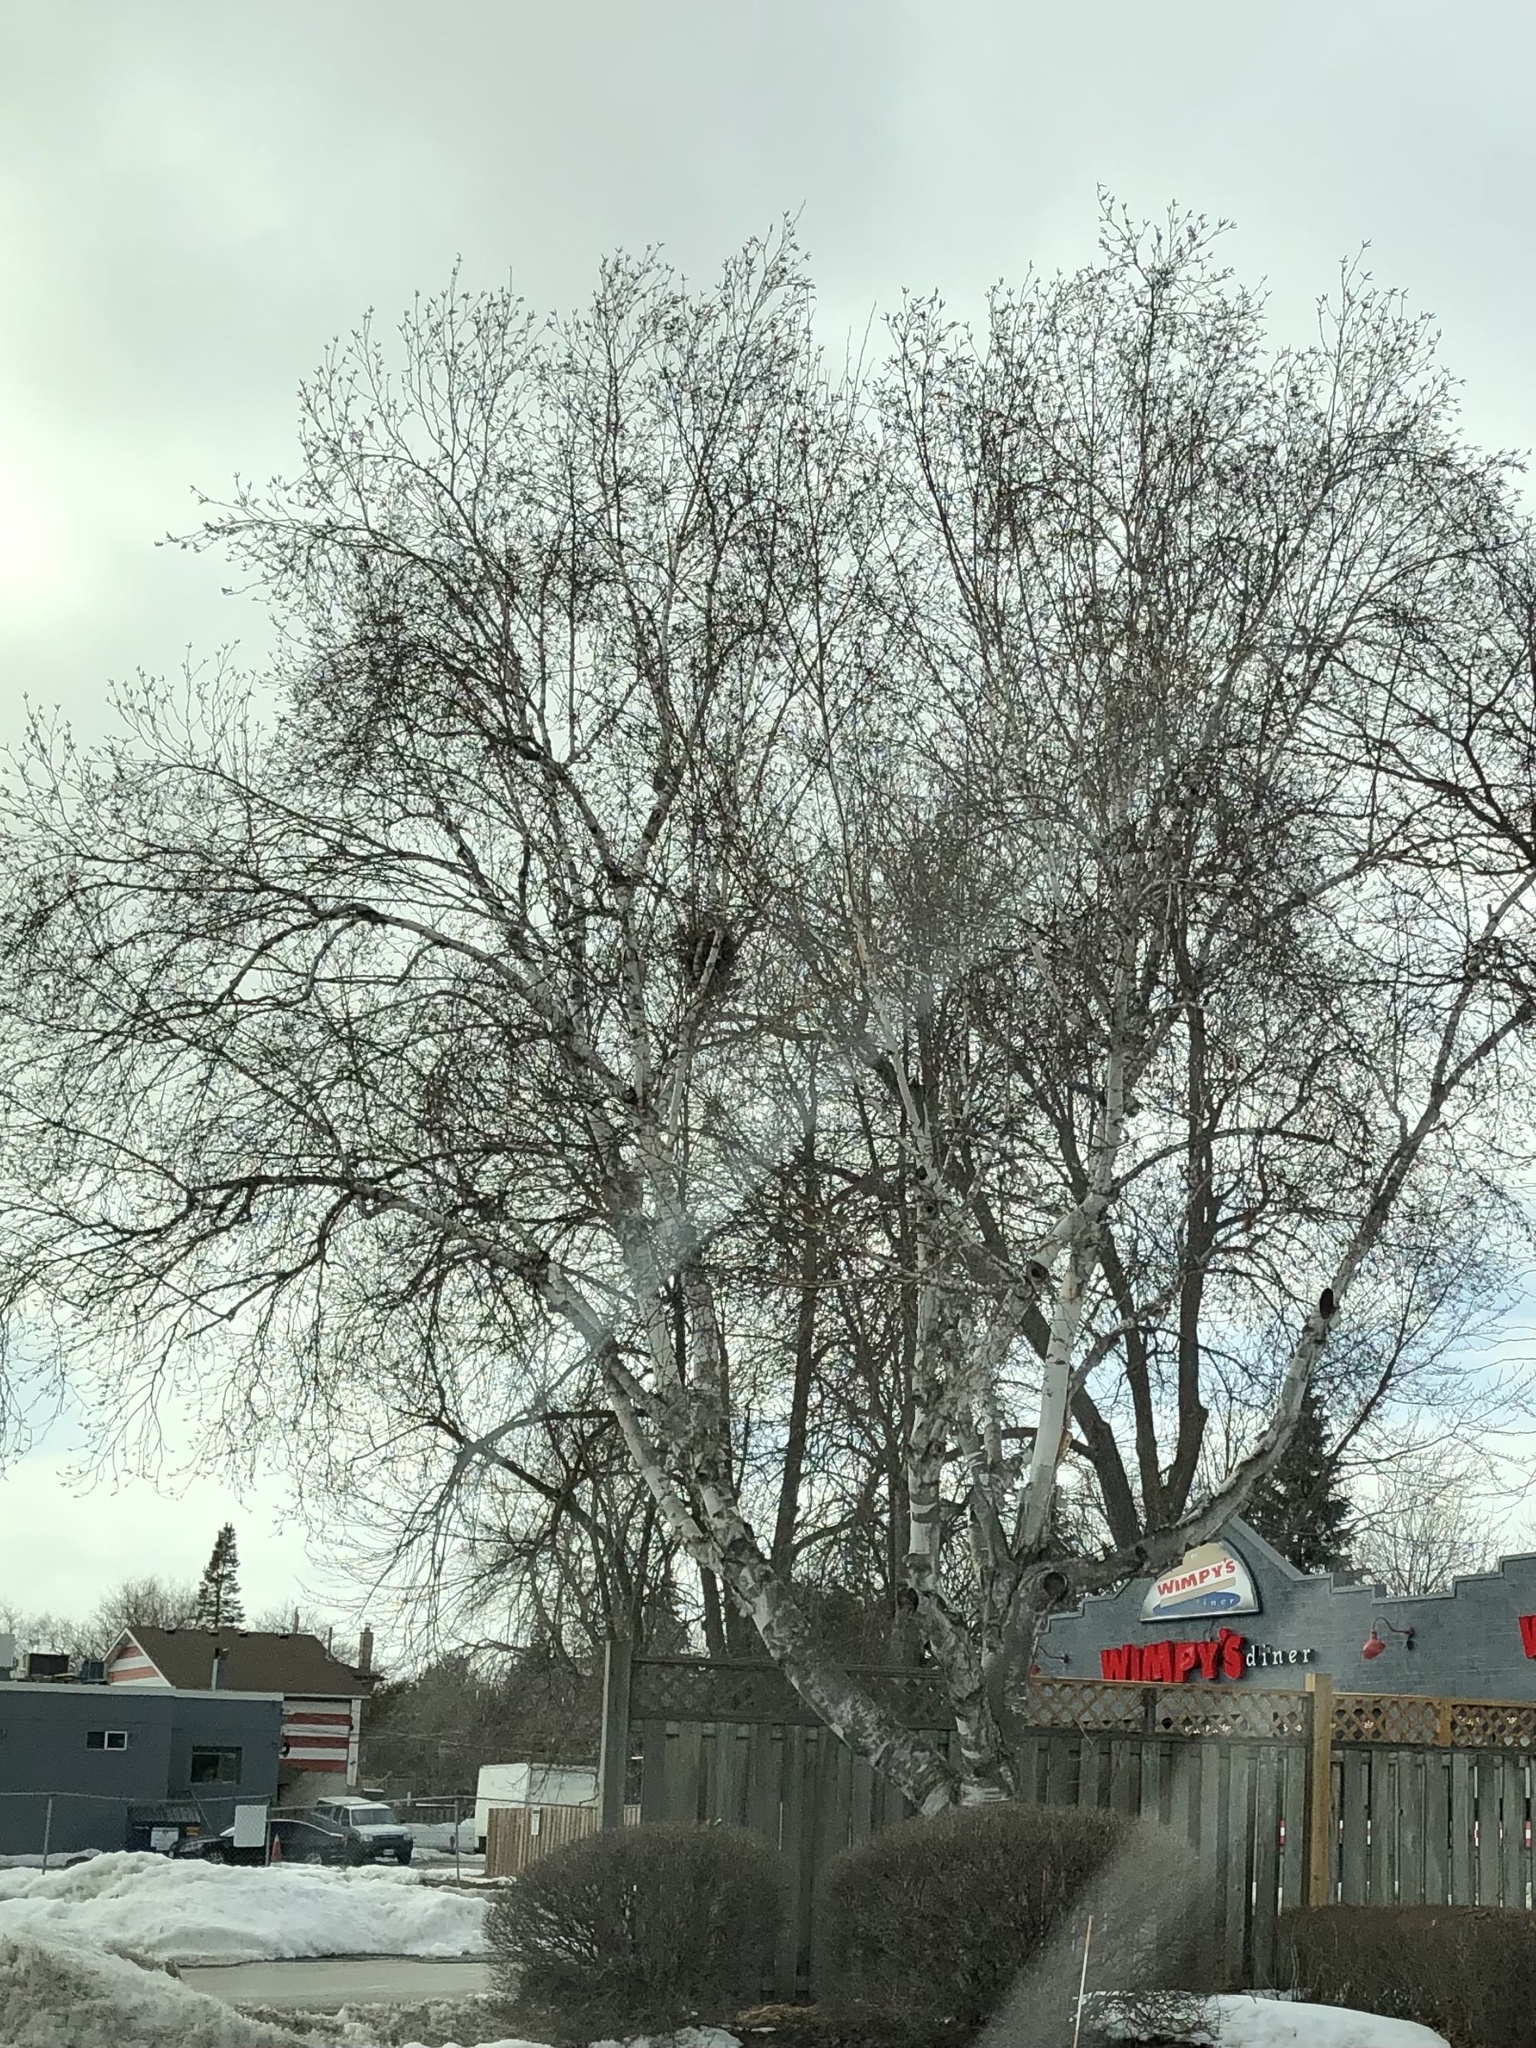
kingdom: Plantae
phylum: Tracheophyta
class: Magnoliopsida
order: Fagales
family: Betulaceae
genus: Betula
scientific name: Betula papyrifera
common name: Paper birch
